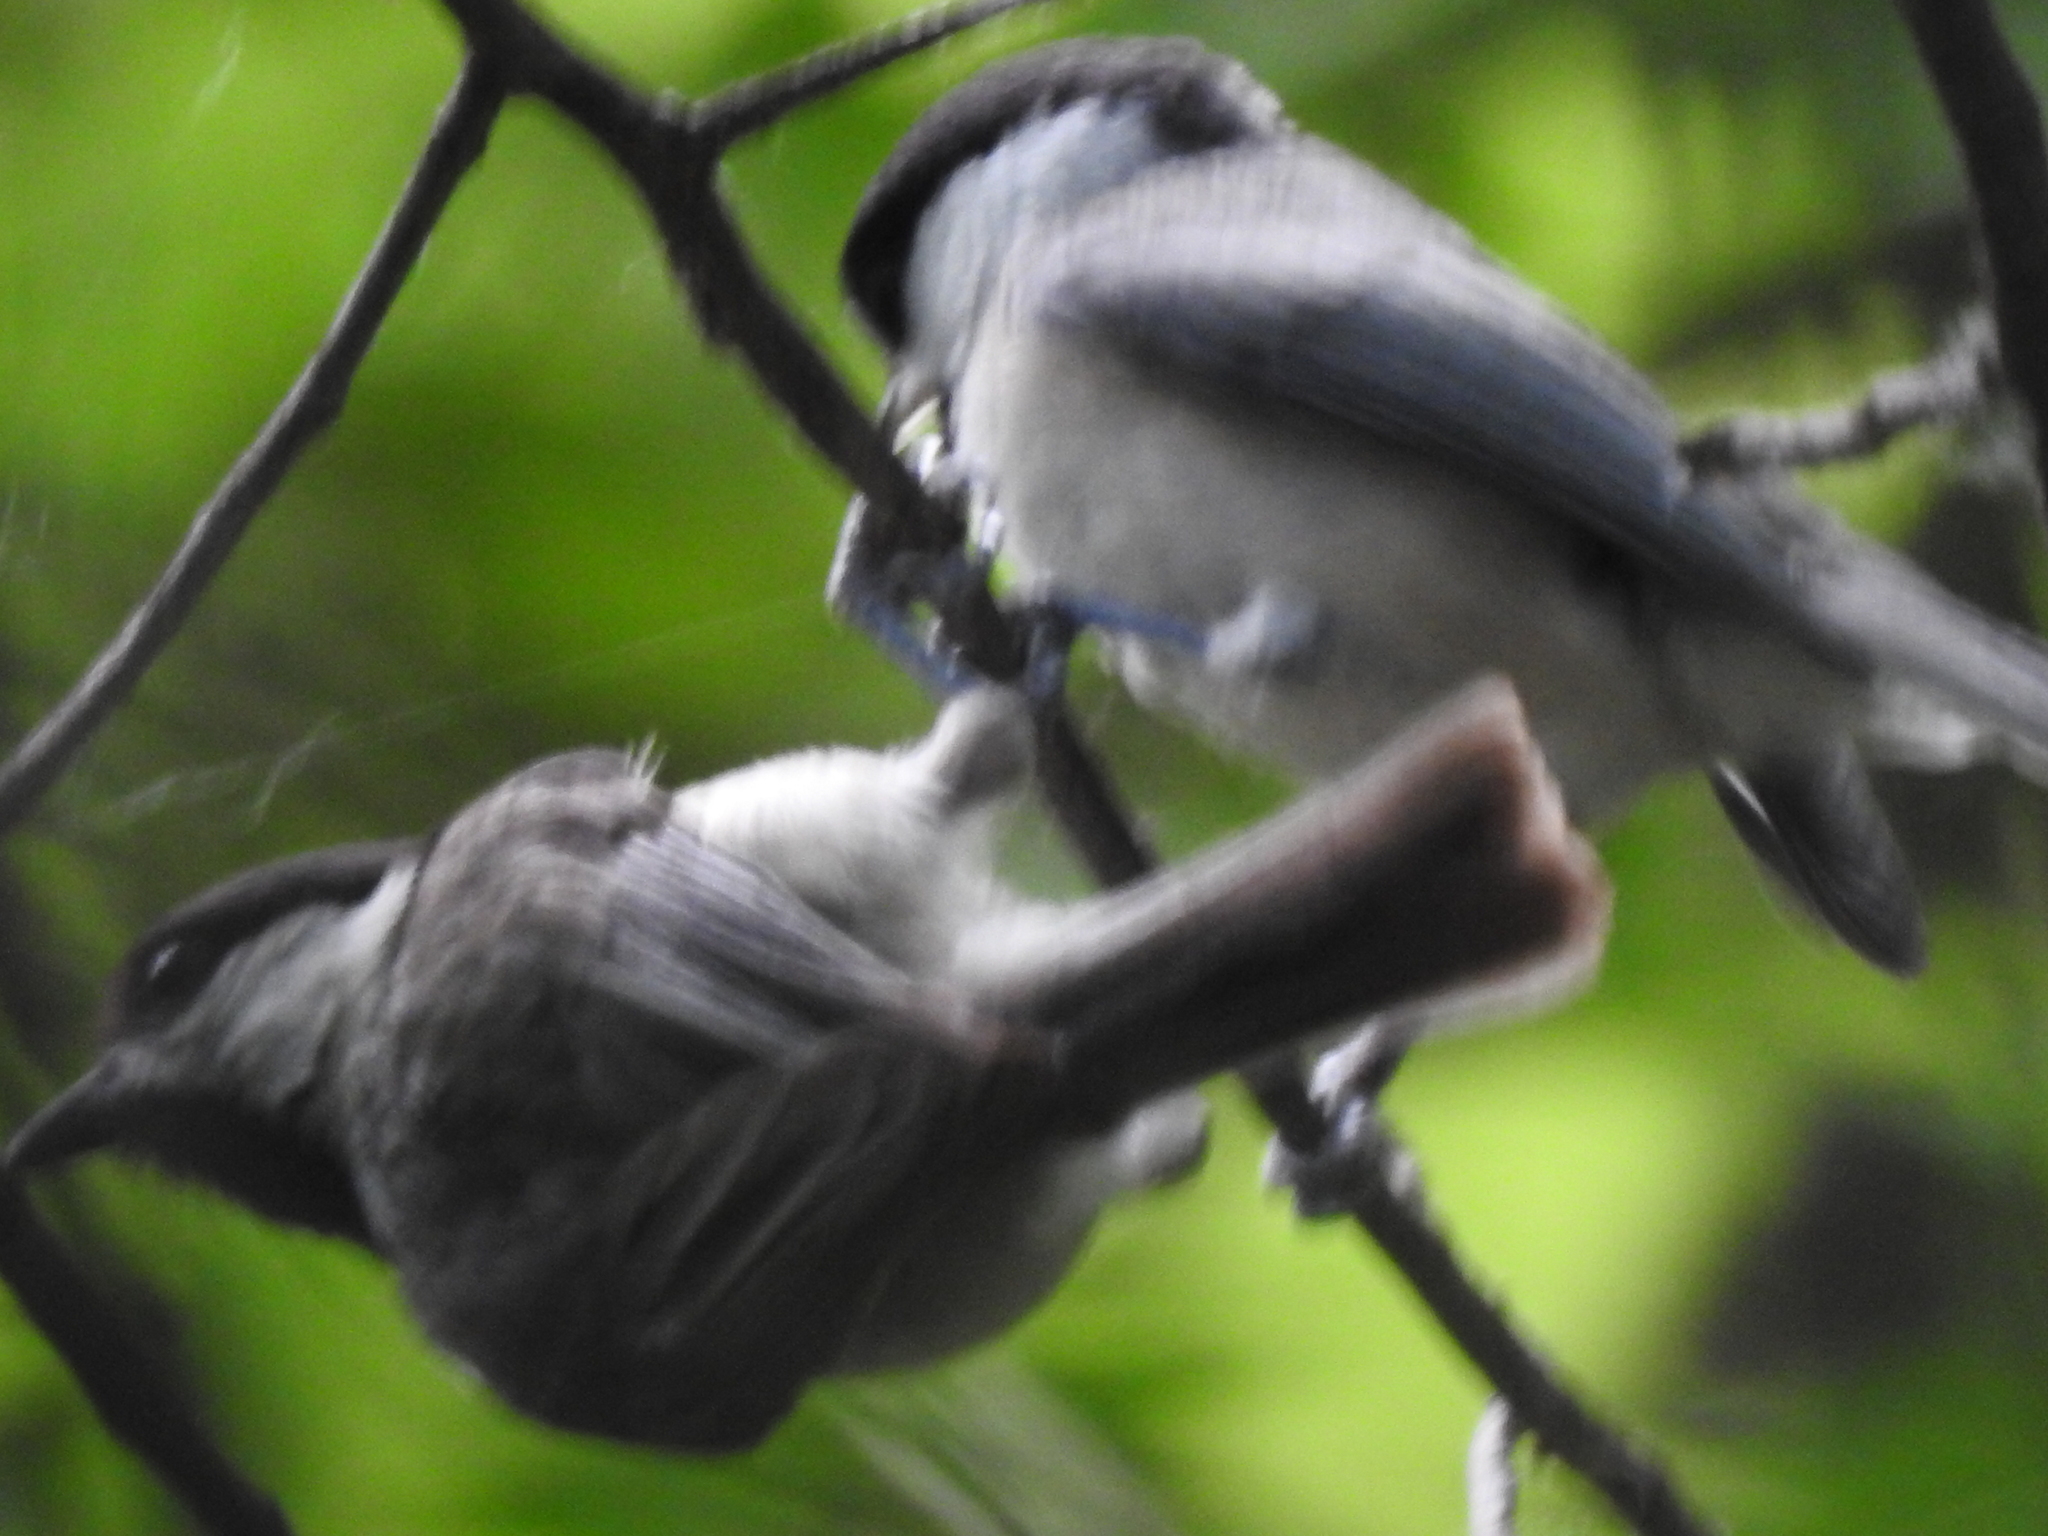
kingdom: Animalia
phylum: Chordata
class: Aves
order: Passeriformes
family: Paridae
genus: Poecile
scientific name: Poecile carolinensis
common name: Carolina chickadee
